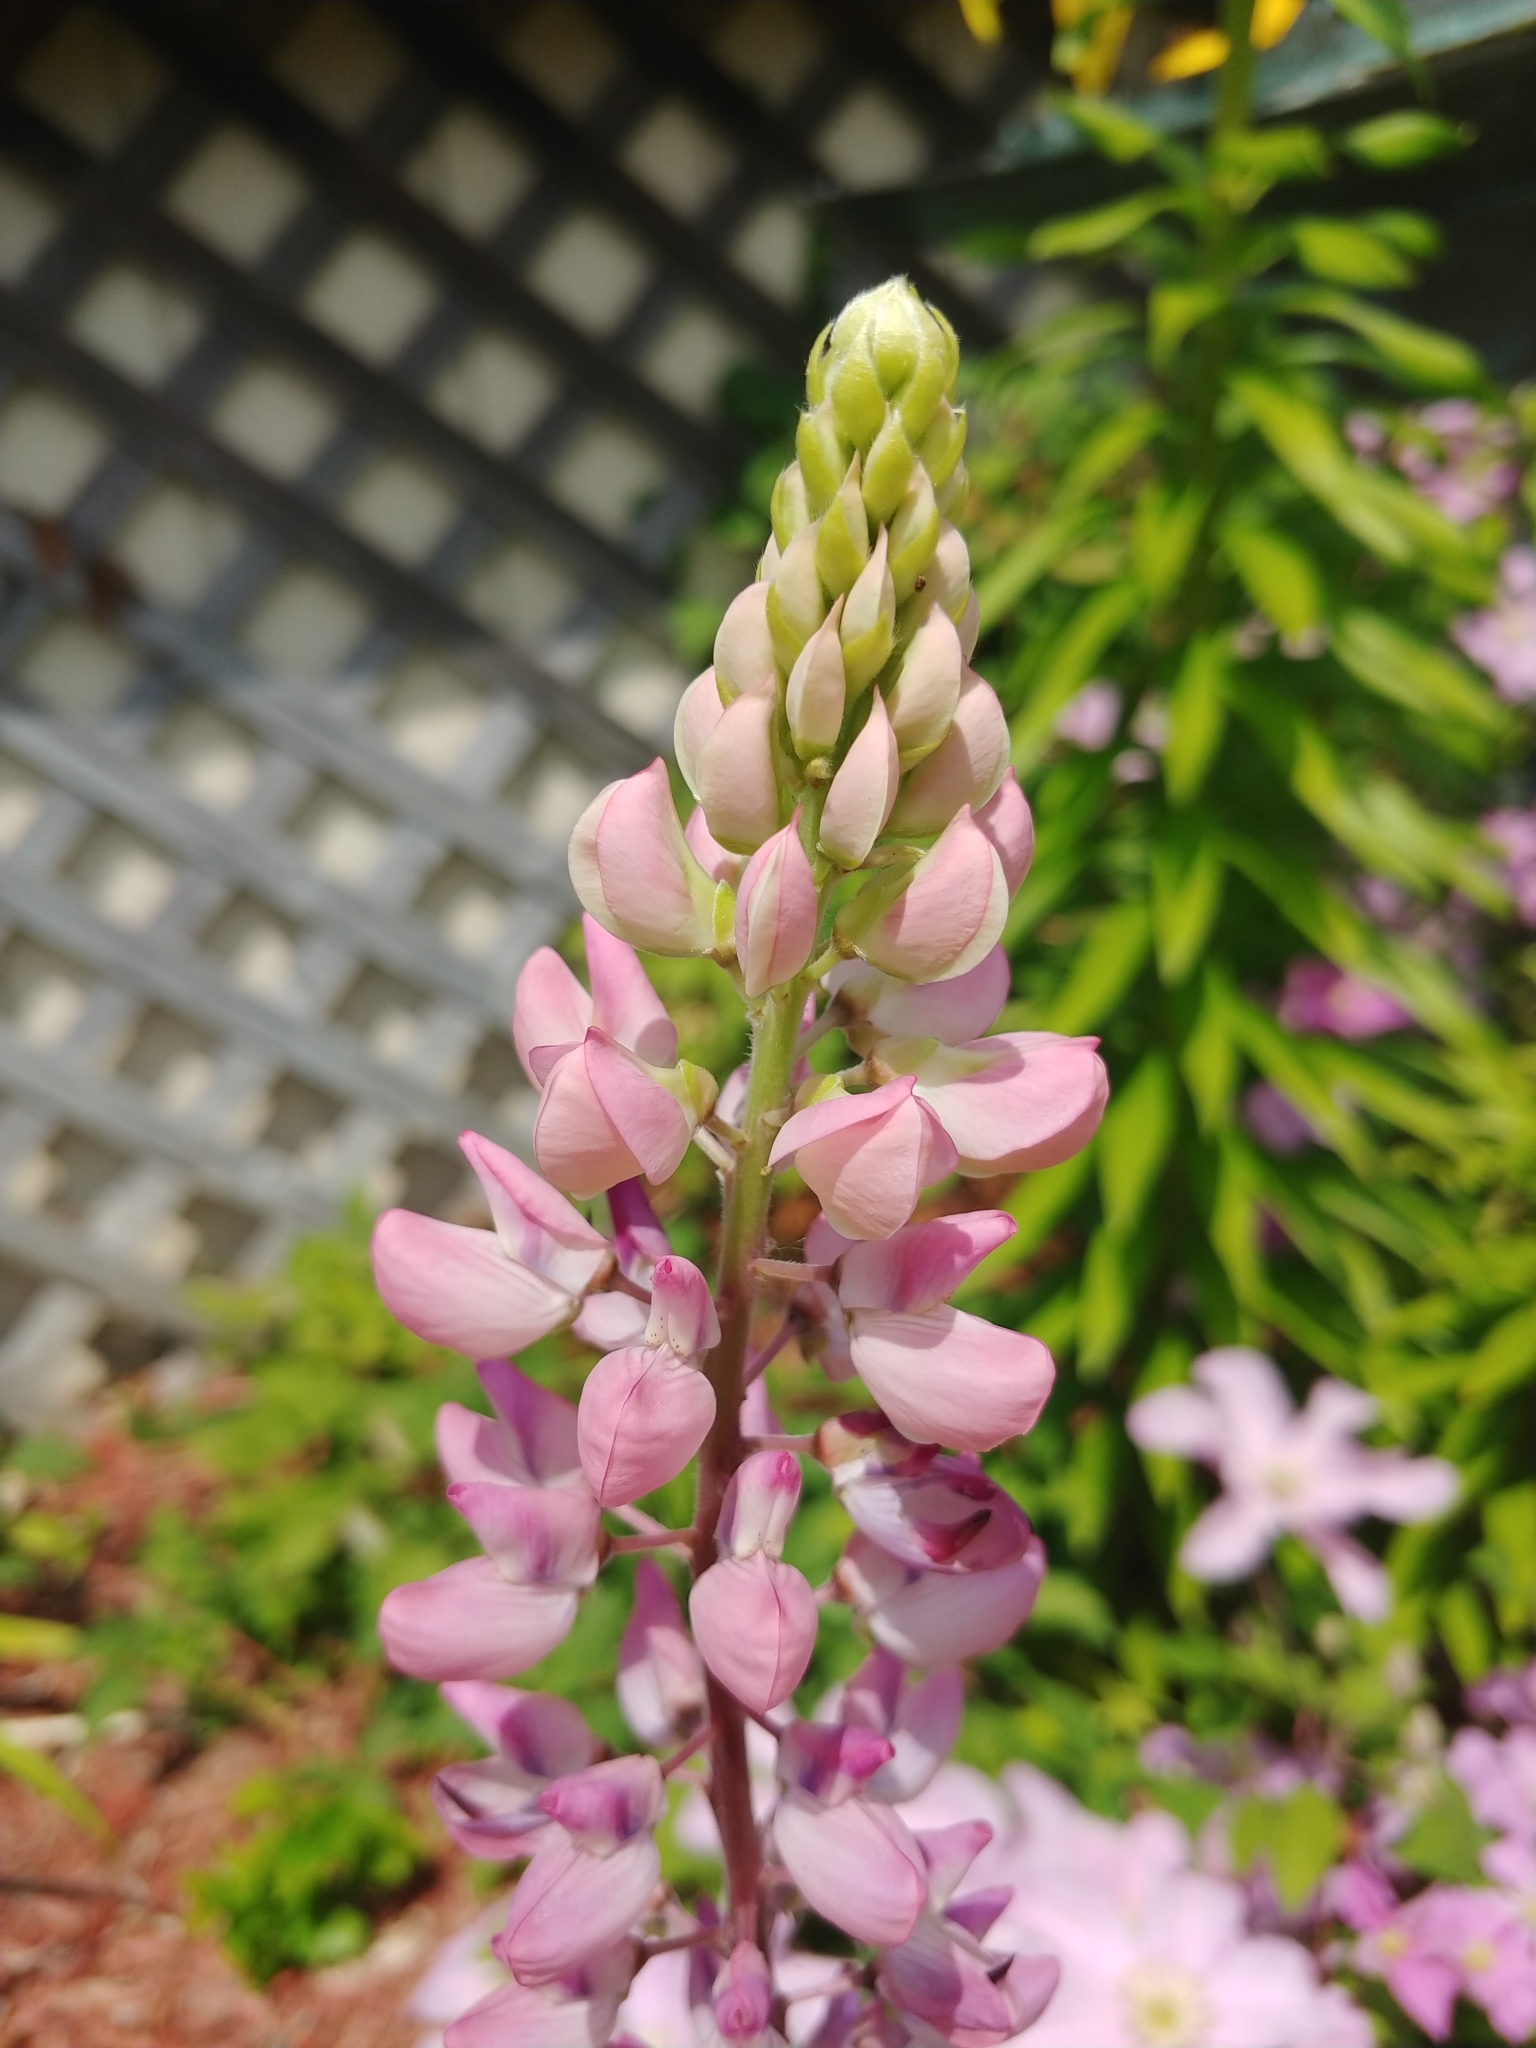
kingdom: Plantae
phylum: Tracheophyta
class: Magnoliopsida
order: Fabales
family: Fabaceae
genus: Lupinus
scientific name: Lupinus polyphyllus
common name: Garden lupin
